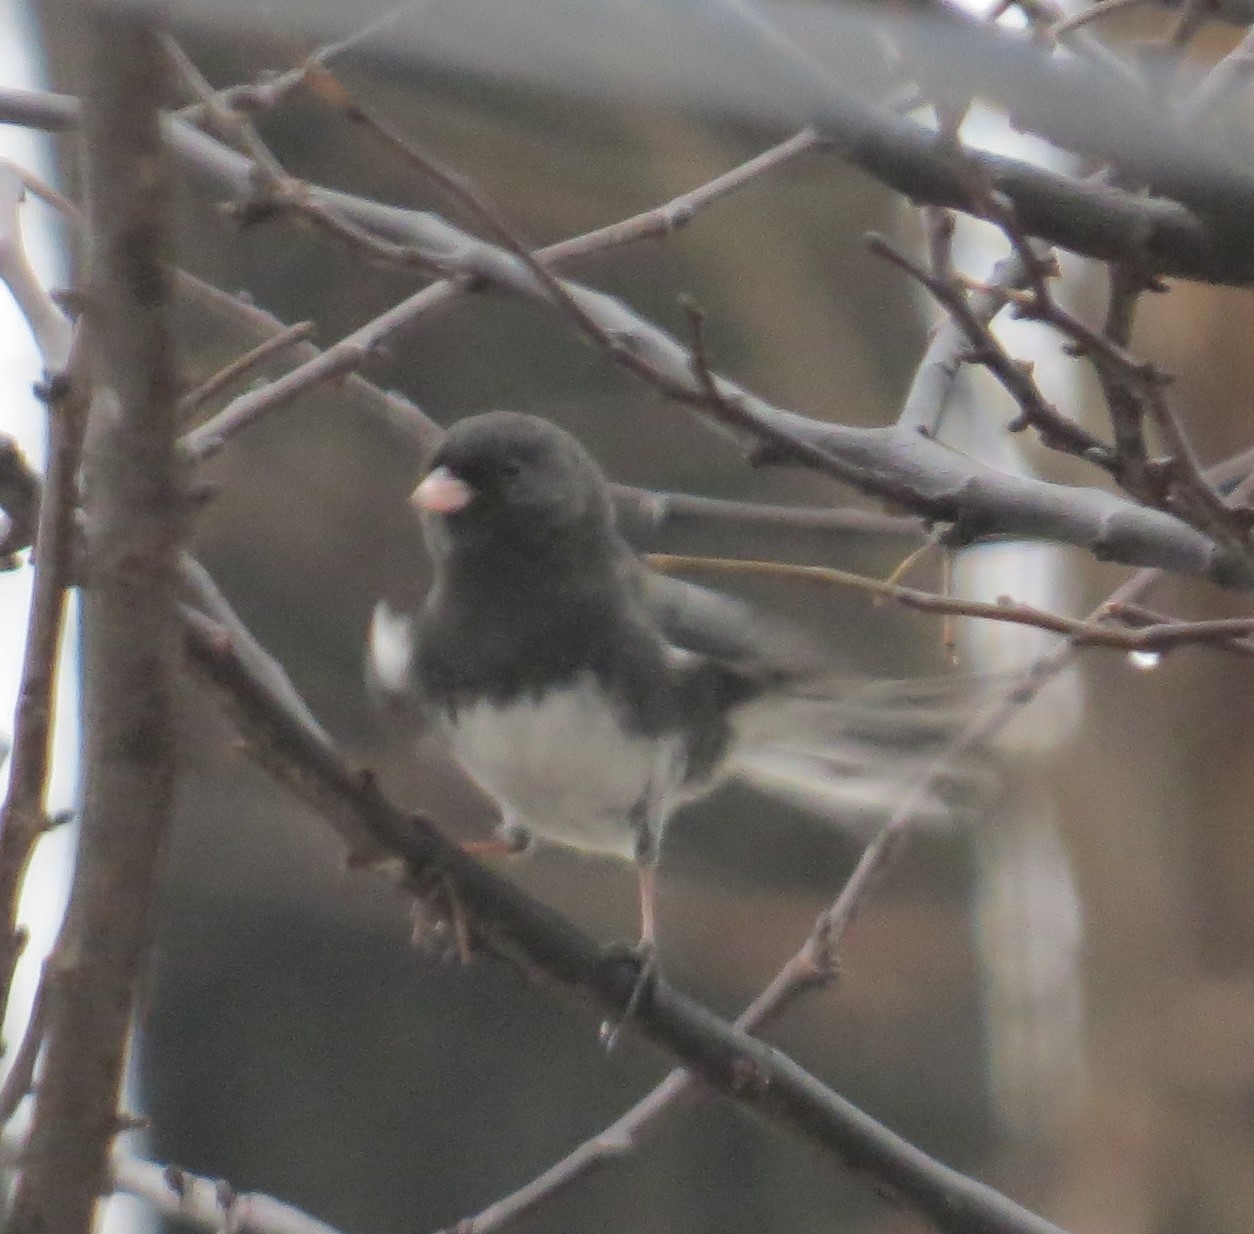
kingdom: Animalia
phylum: Chordata
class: Aves
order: Passeriformes
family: Passerellidae
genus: Junco
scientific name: Junco hyemalis
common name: Dark-eyed junco
